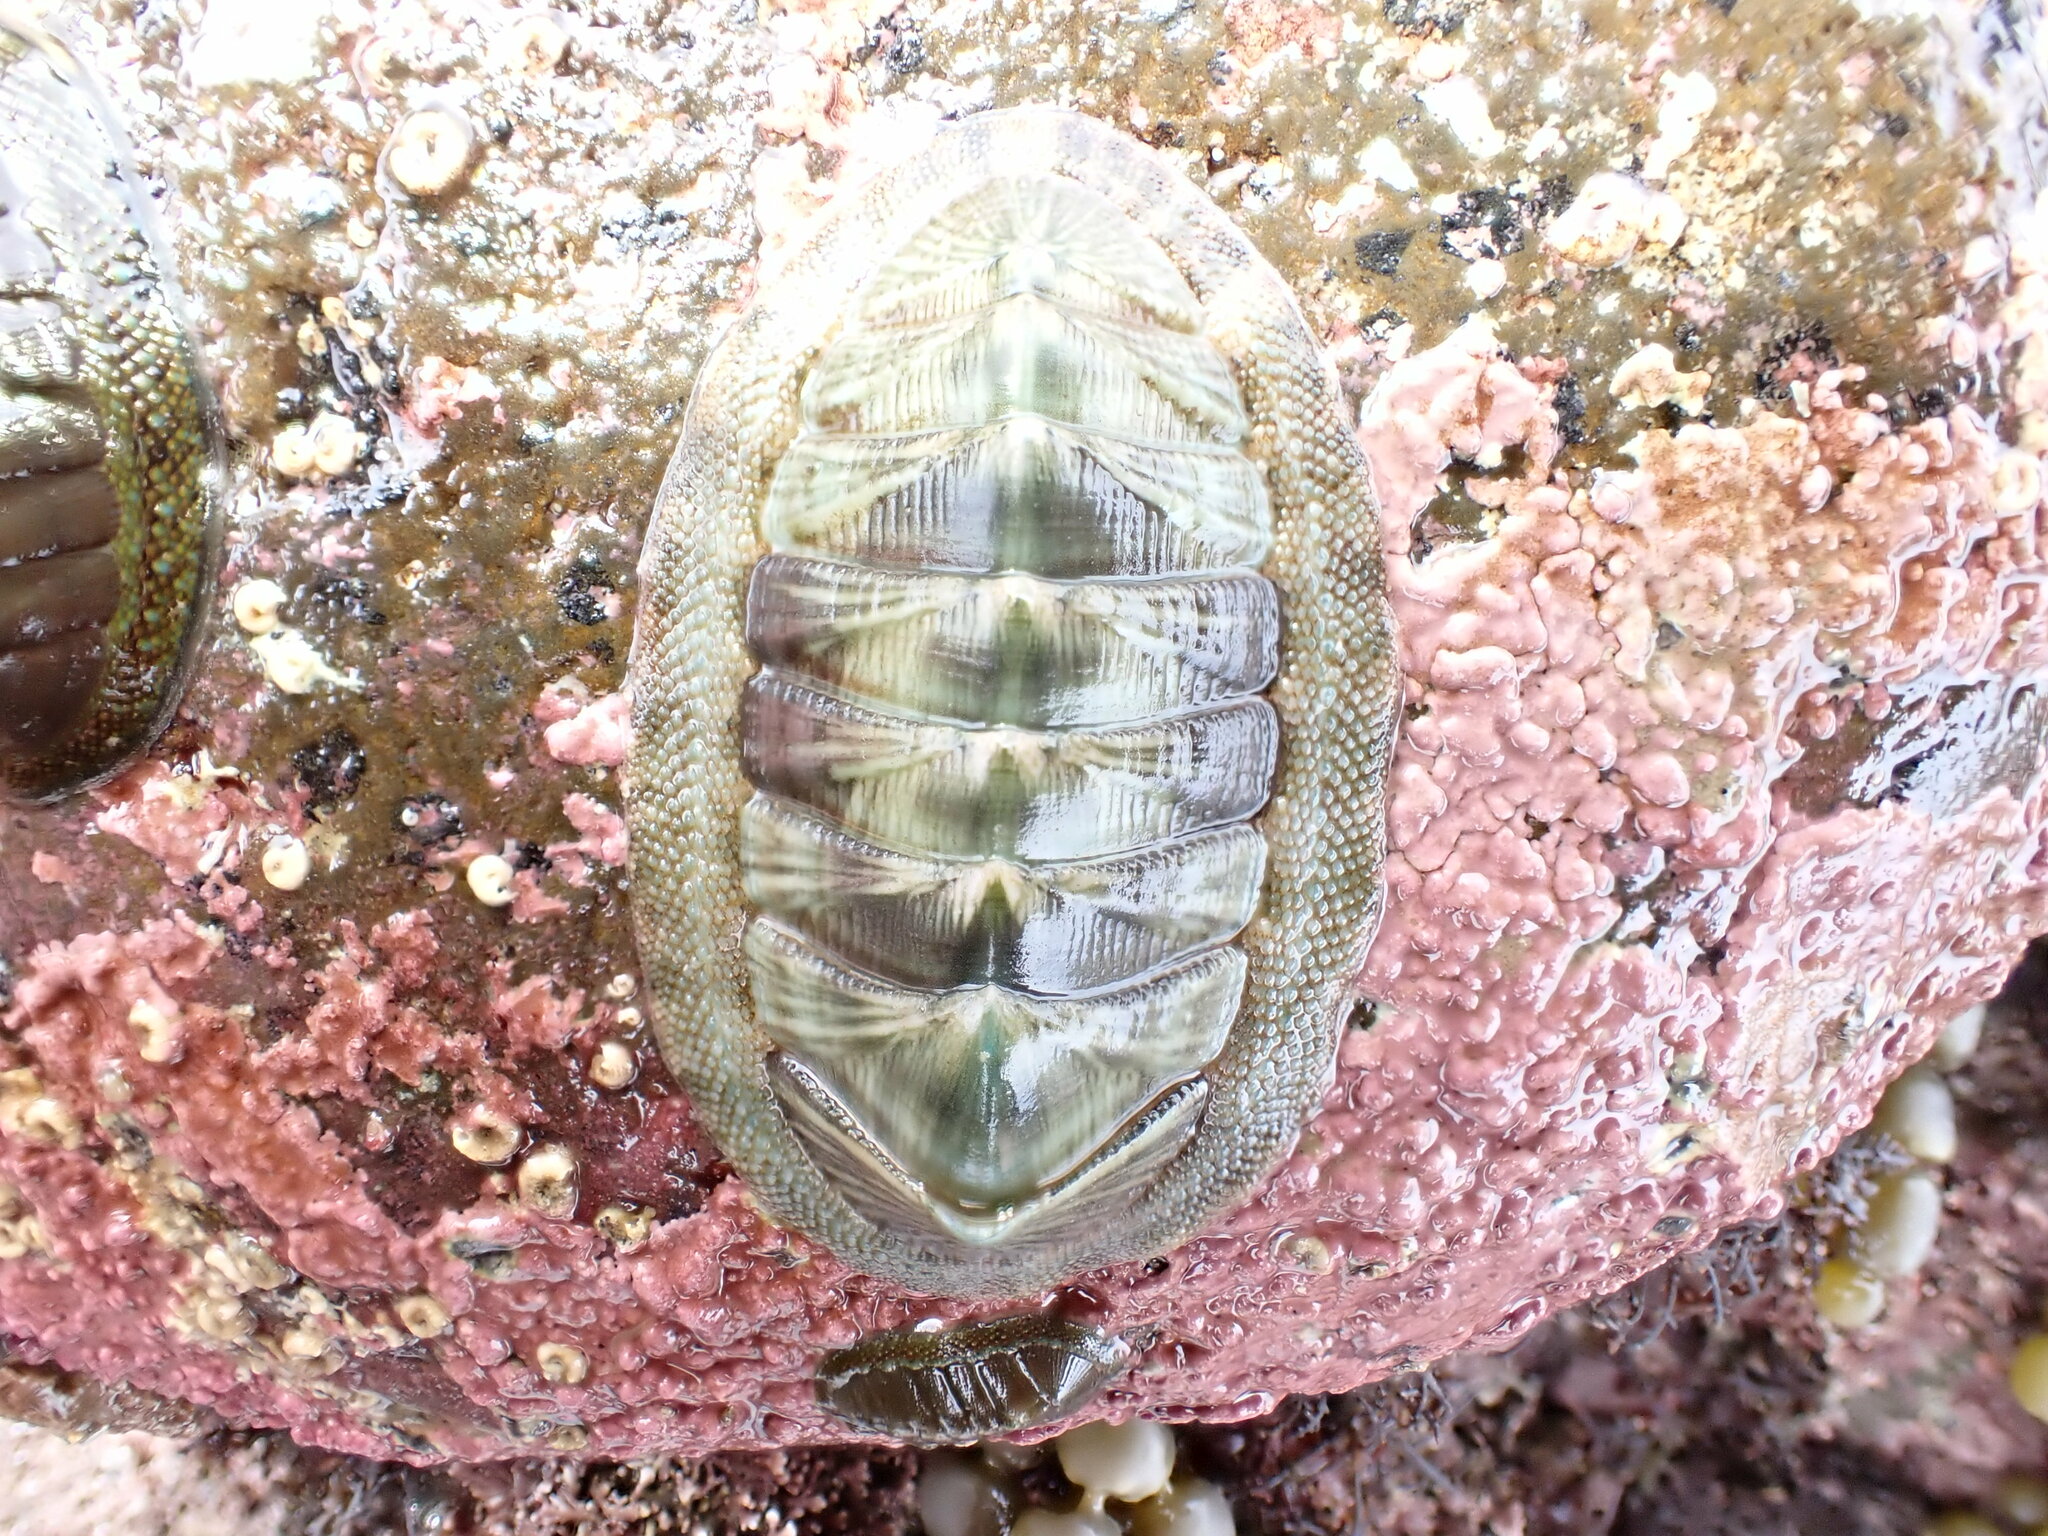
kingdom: Animalia
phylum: Mollusca
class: Polyplacophora
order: Chitonida
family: Chitonidae
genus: Rhyssoplax
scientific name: Rhyssoplax aerea
